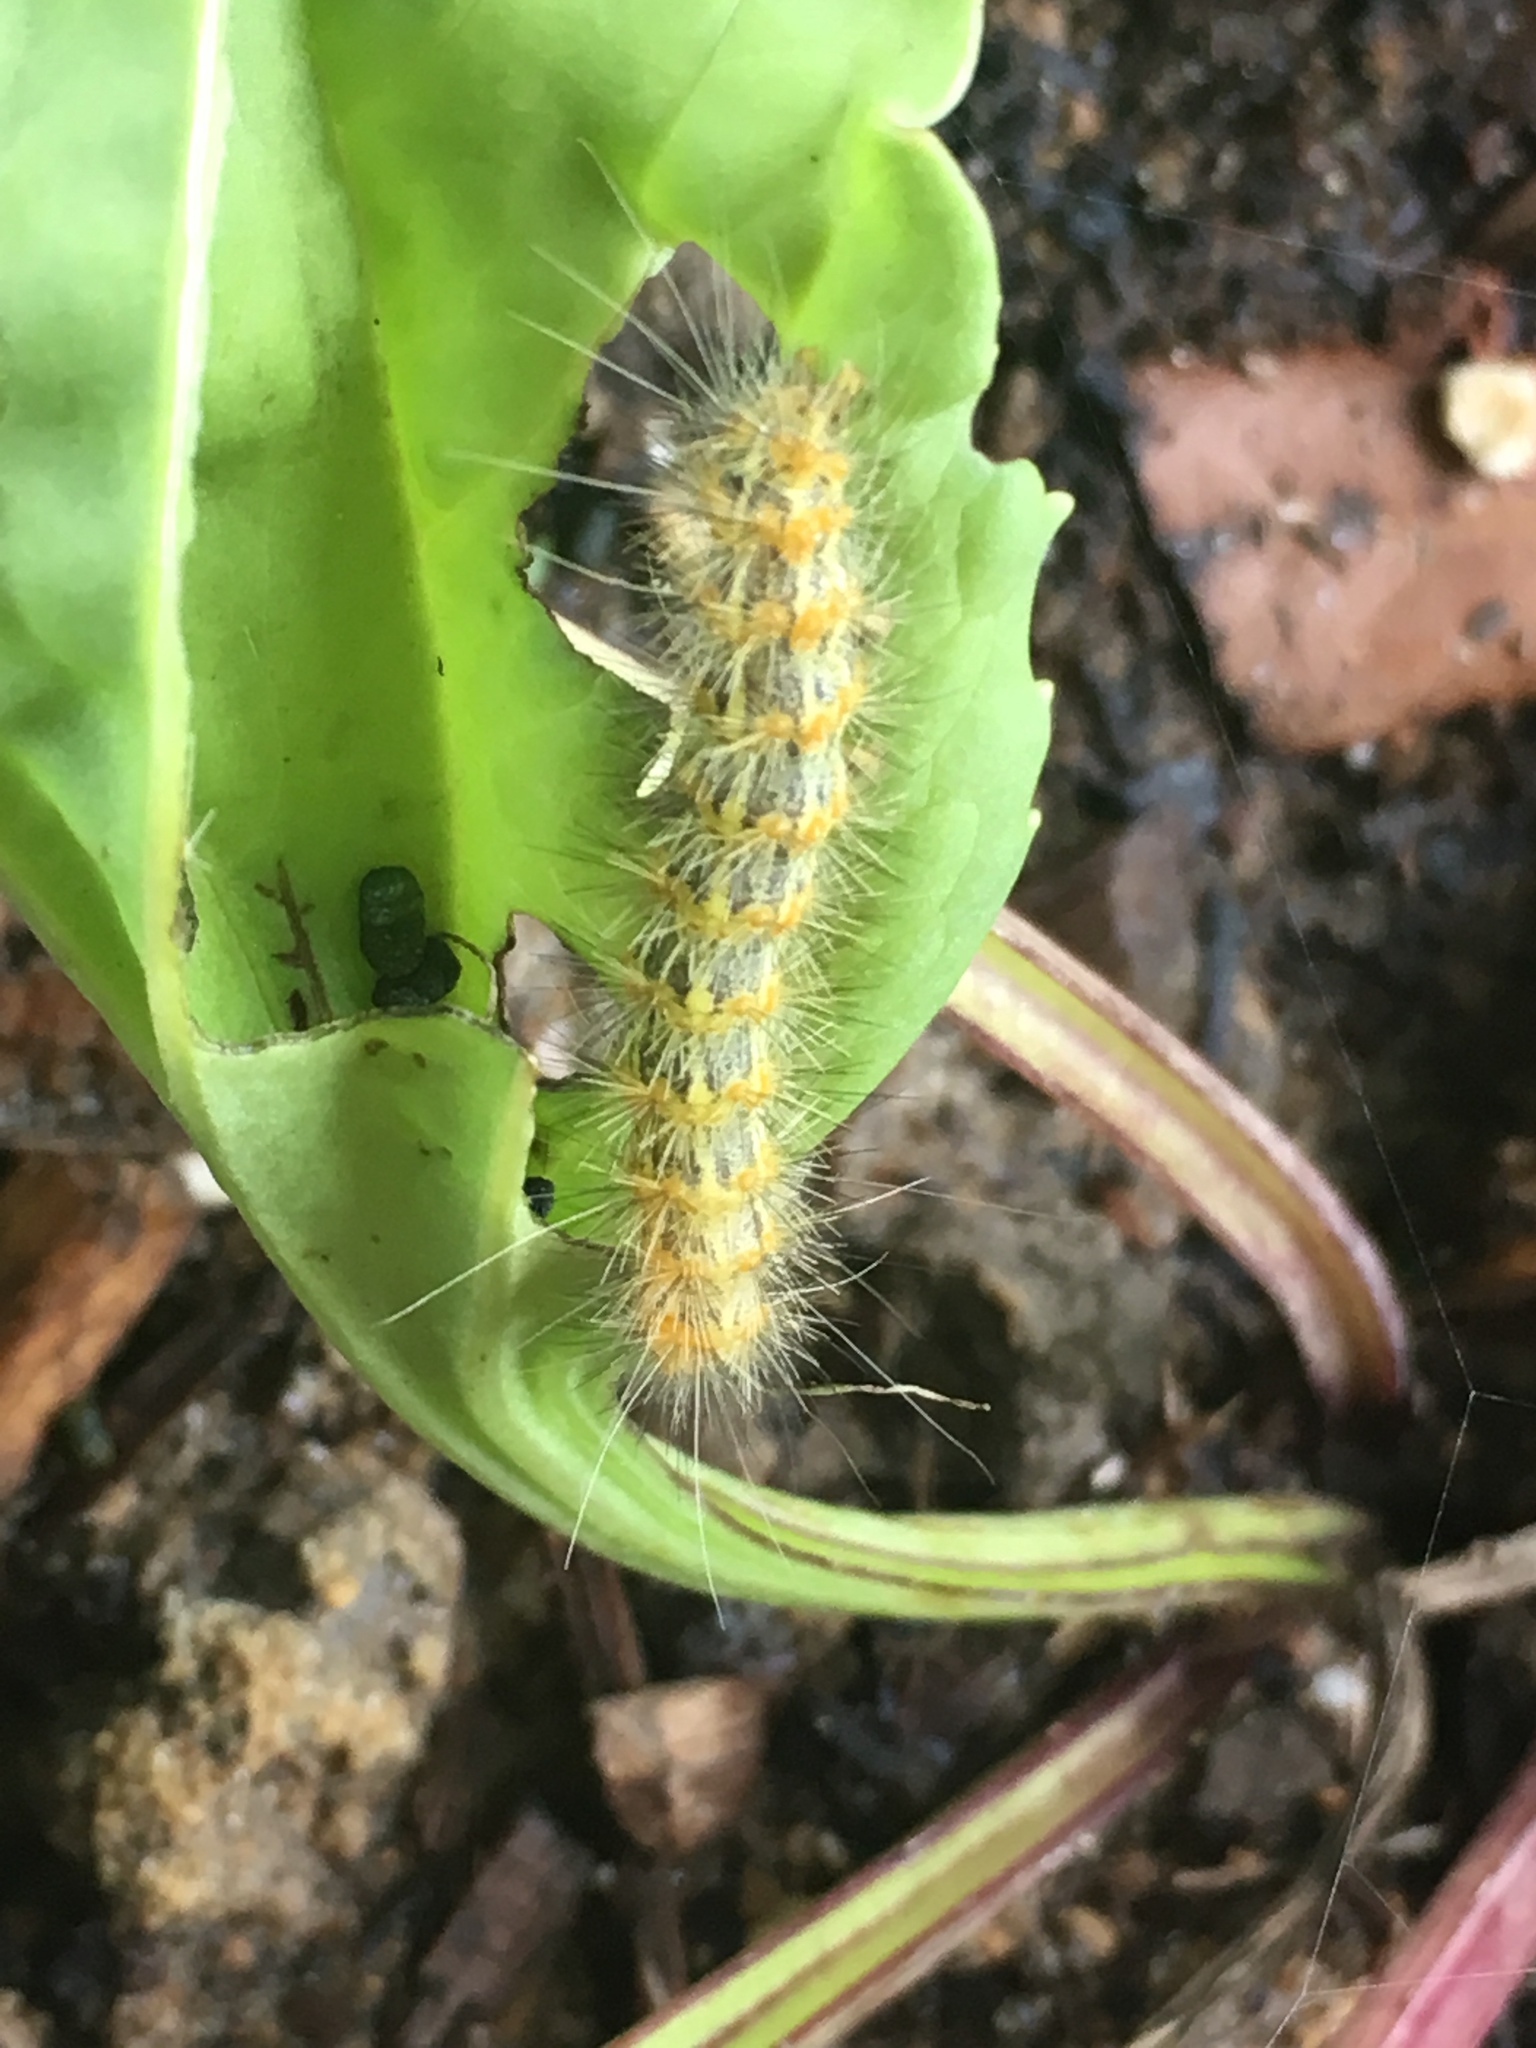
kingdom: Animalia
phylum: Arthropoda
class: Insecta
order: Lepidoptera
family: Erebidae
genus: Estigmene
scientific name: Estigmene acrea
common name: Salt marsh moth
